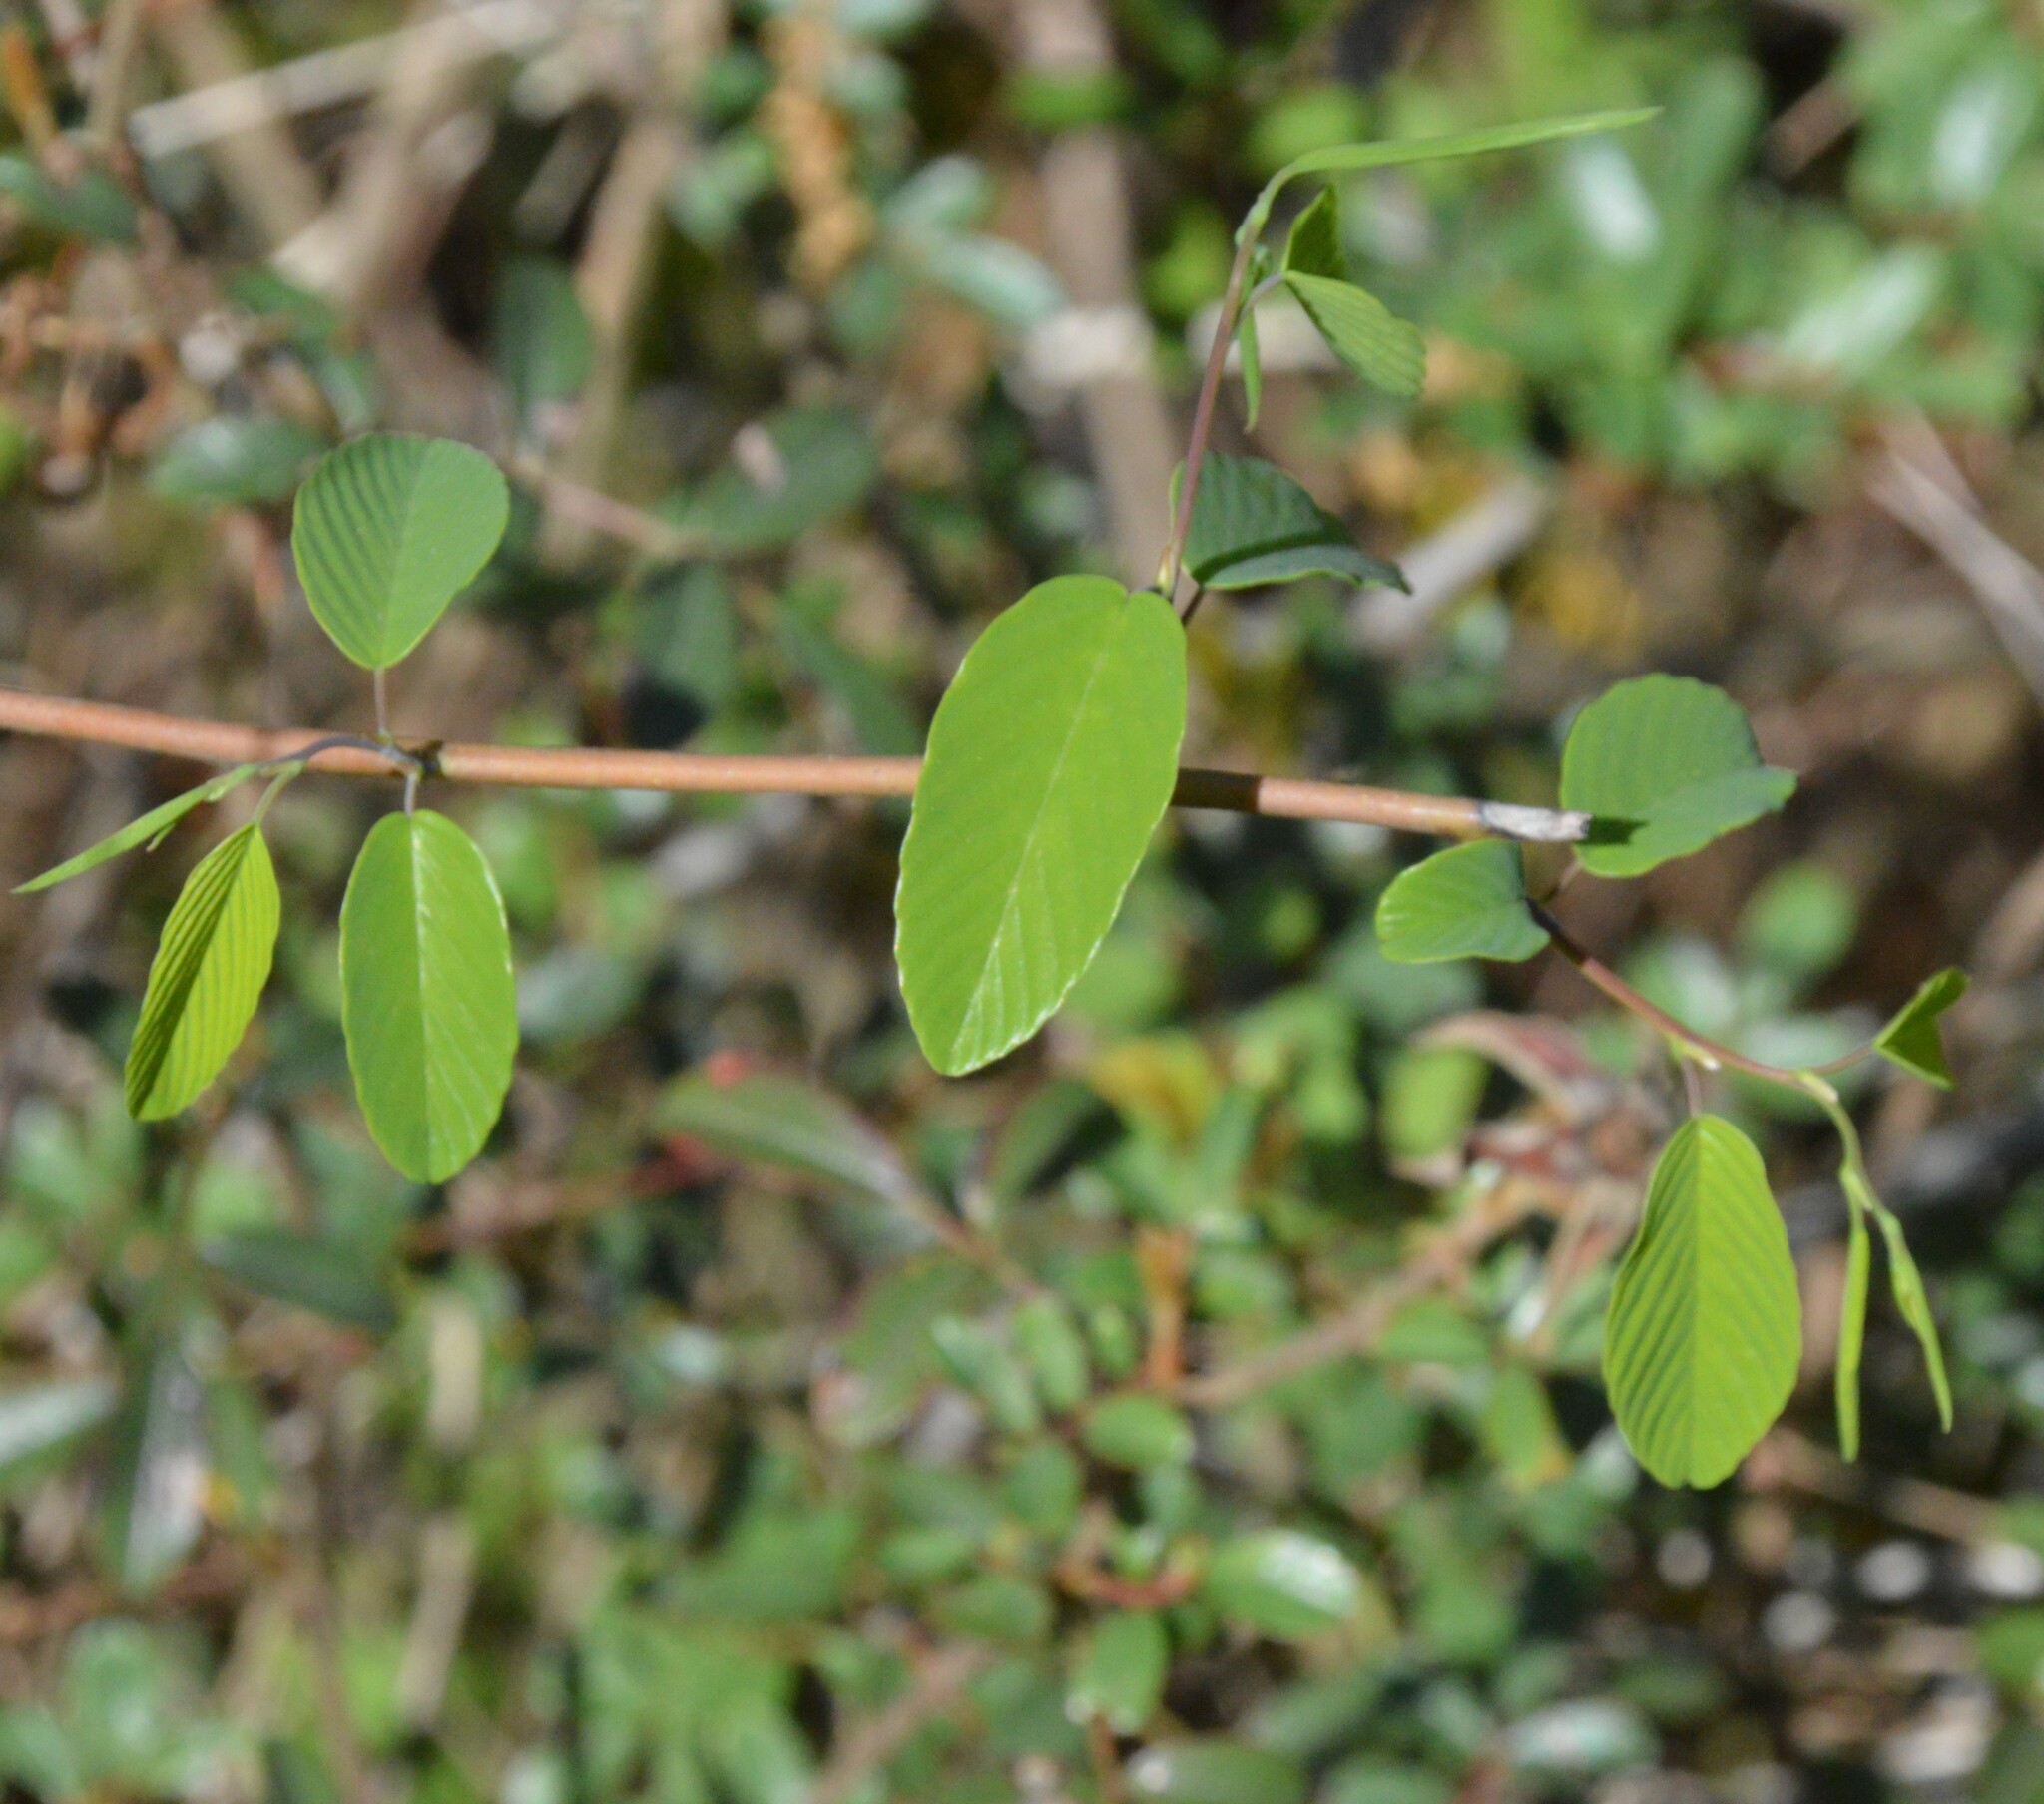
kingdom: Plantae
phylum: Tracheophyta
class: Magnoliopsida
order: Rosales
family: Rhamnaceae
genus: Berchemia
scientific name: Berchemia scandens
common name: Supplejack
